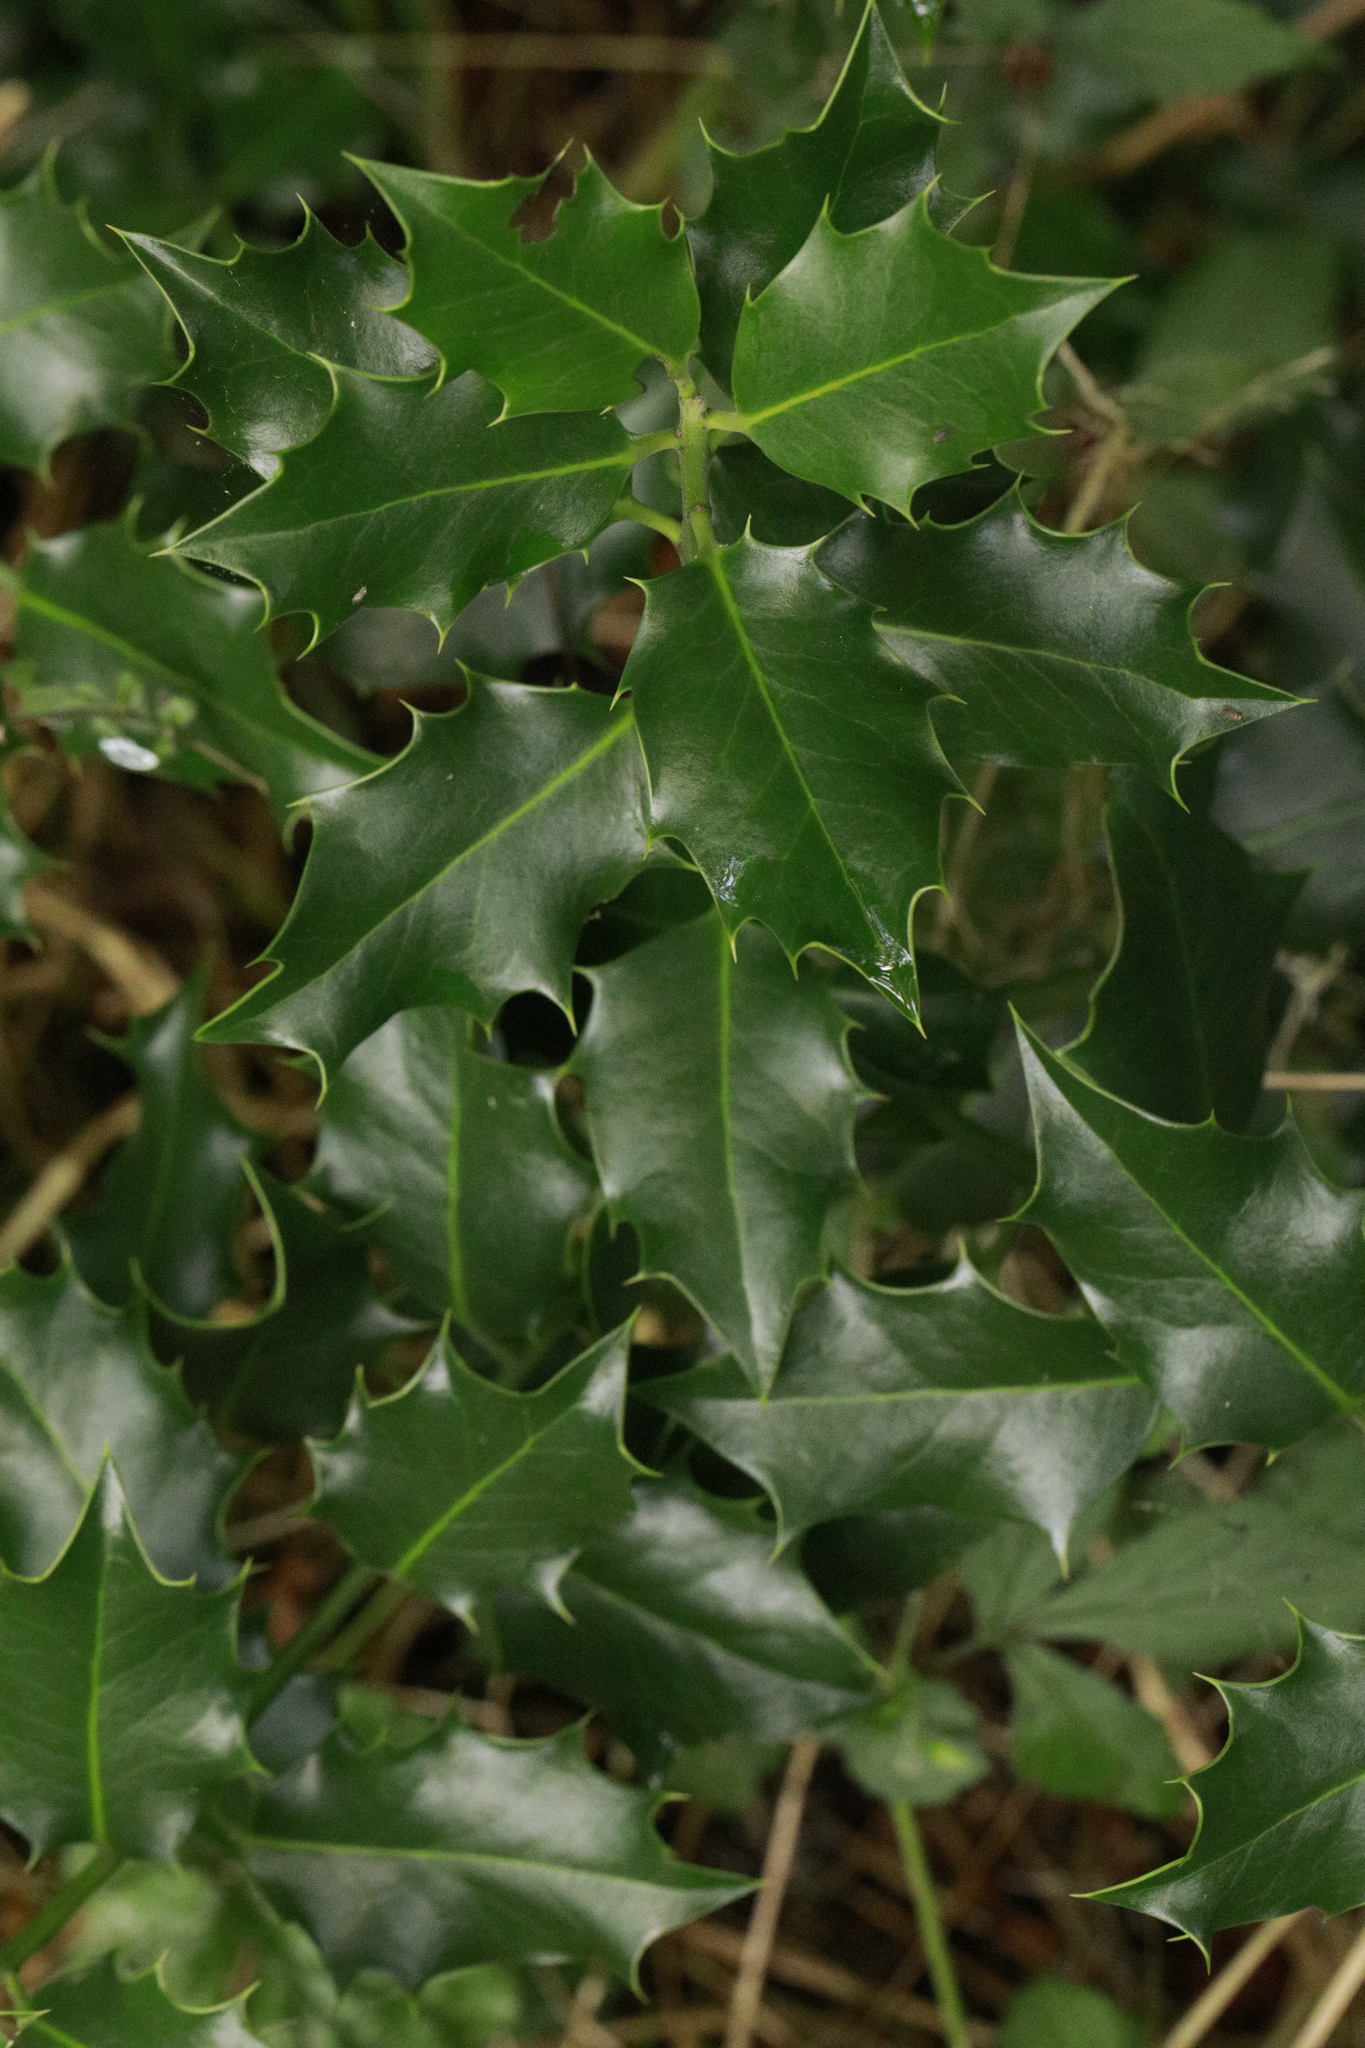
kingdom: Plantae
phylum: Tracheophyta
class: Magnoliopsida
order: Aquifoliales
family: Aquifoliaceae
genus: Ilex
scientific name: Ilex aquifolium
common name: English holly
